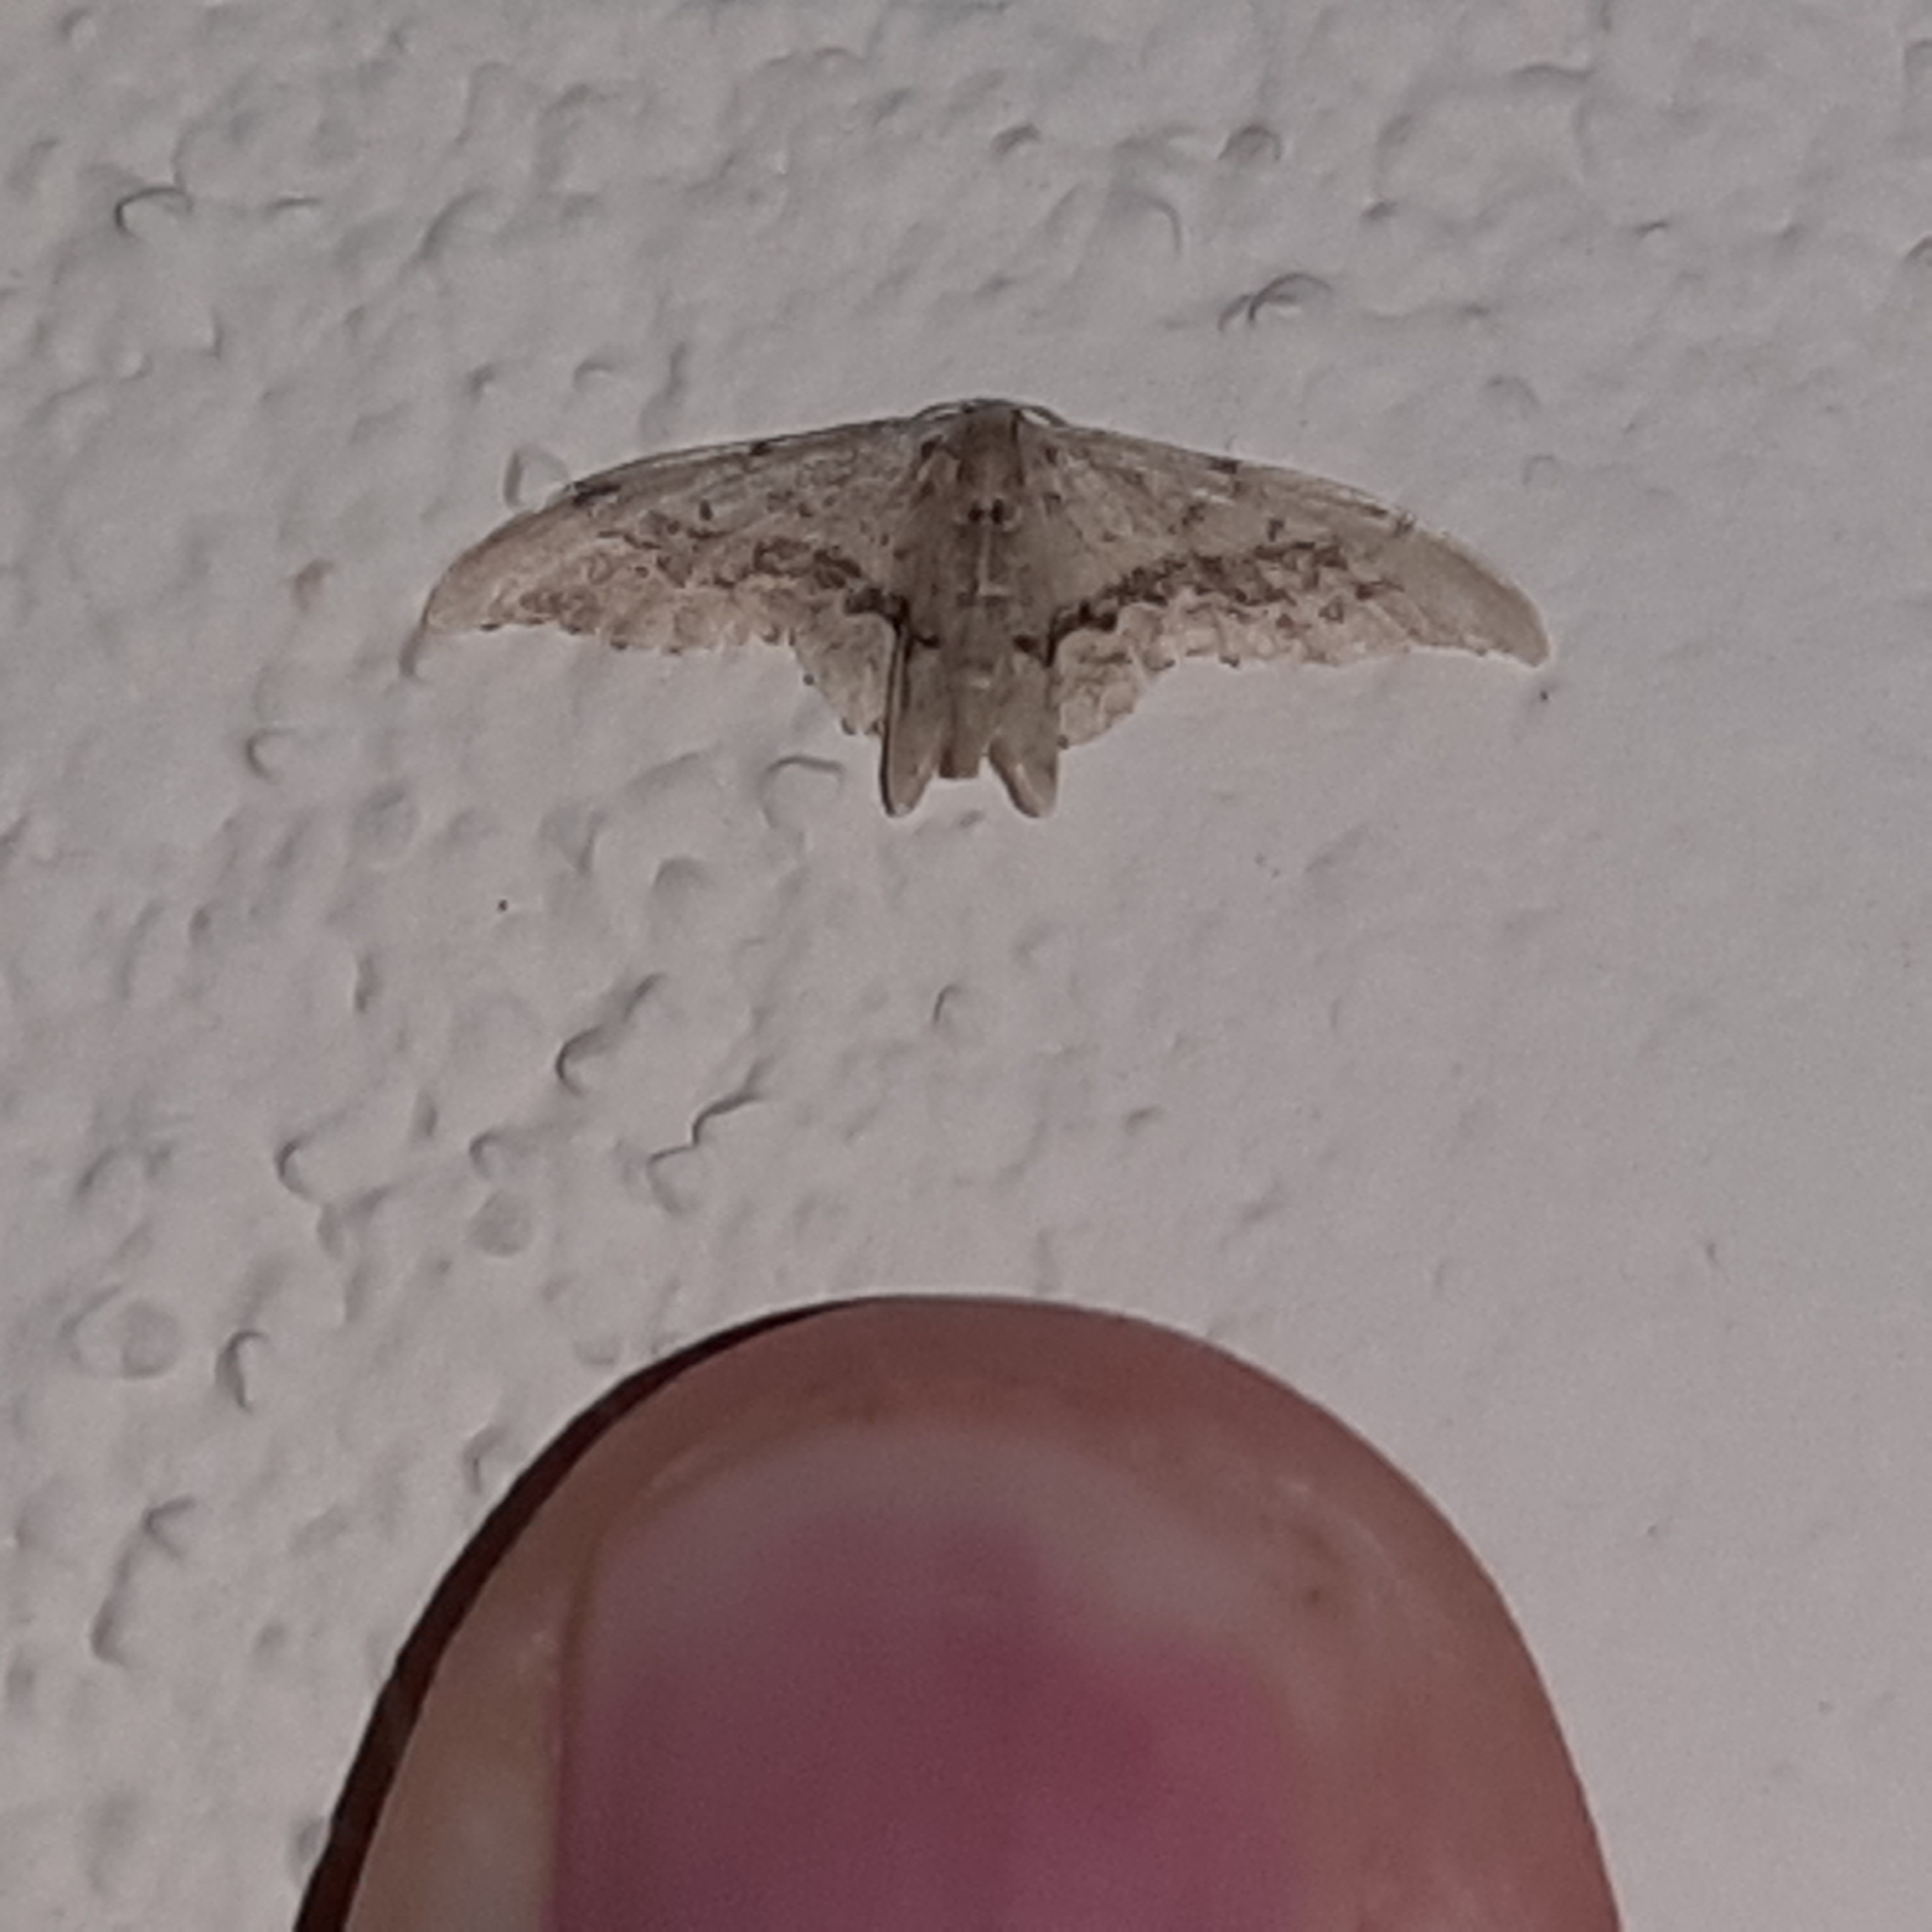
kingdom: Animalia
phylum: Arthropoda
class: Insecta
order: Lepidoptera
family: Geometridae
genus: Idaea
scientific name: Idaea elata
